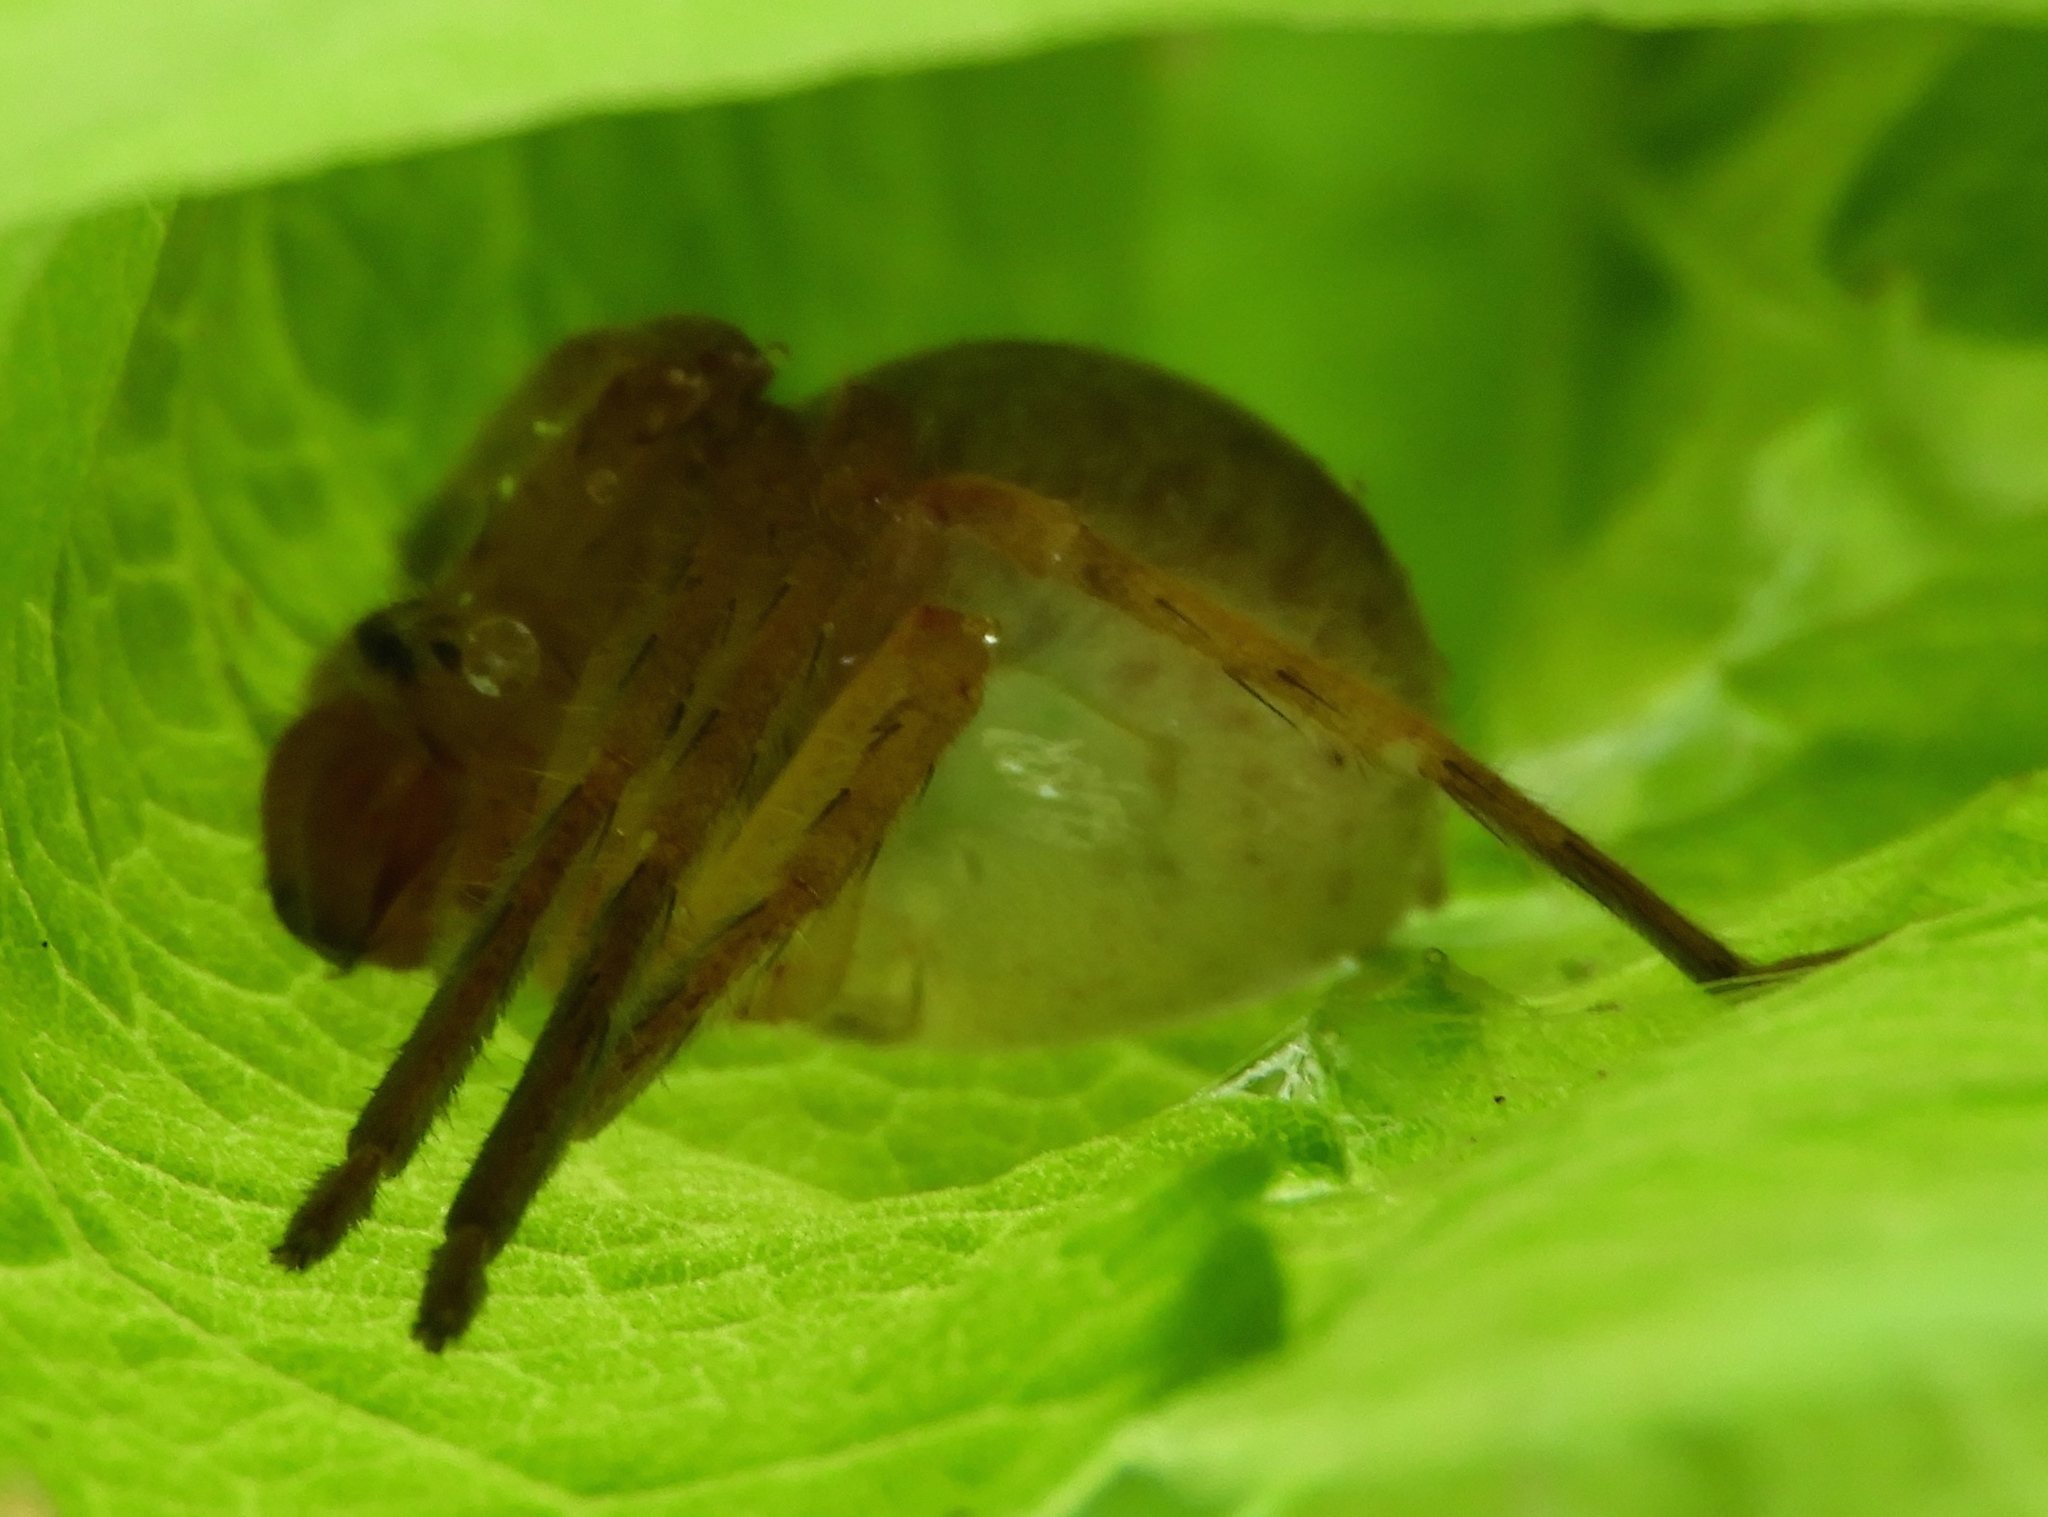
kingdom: Animalia
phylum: Arthropoda
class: Arachnida
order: Araneae
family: Sparassidae
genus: Curicaberis
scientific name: Curicaberis
